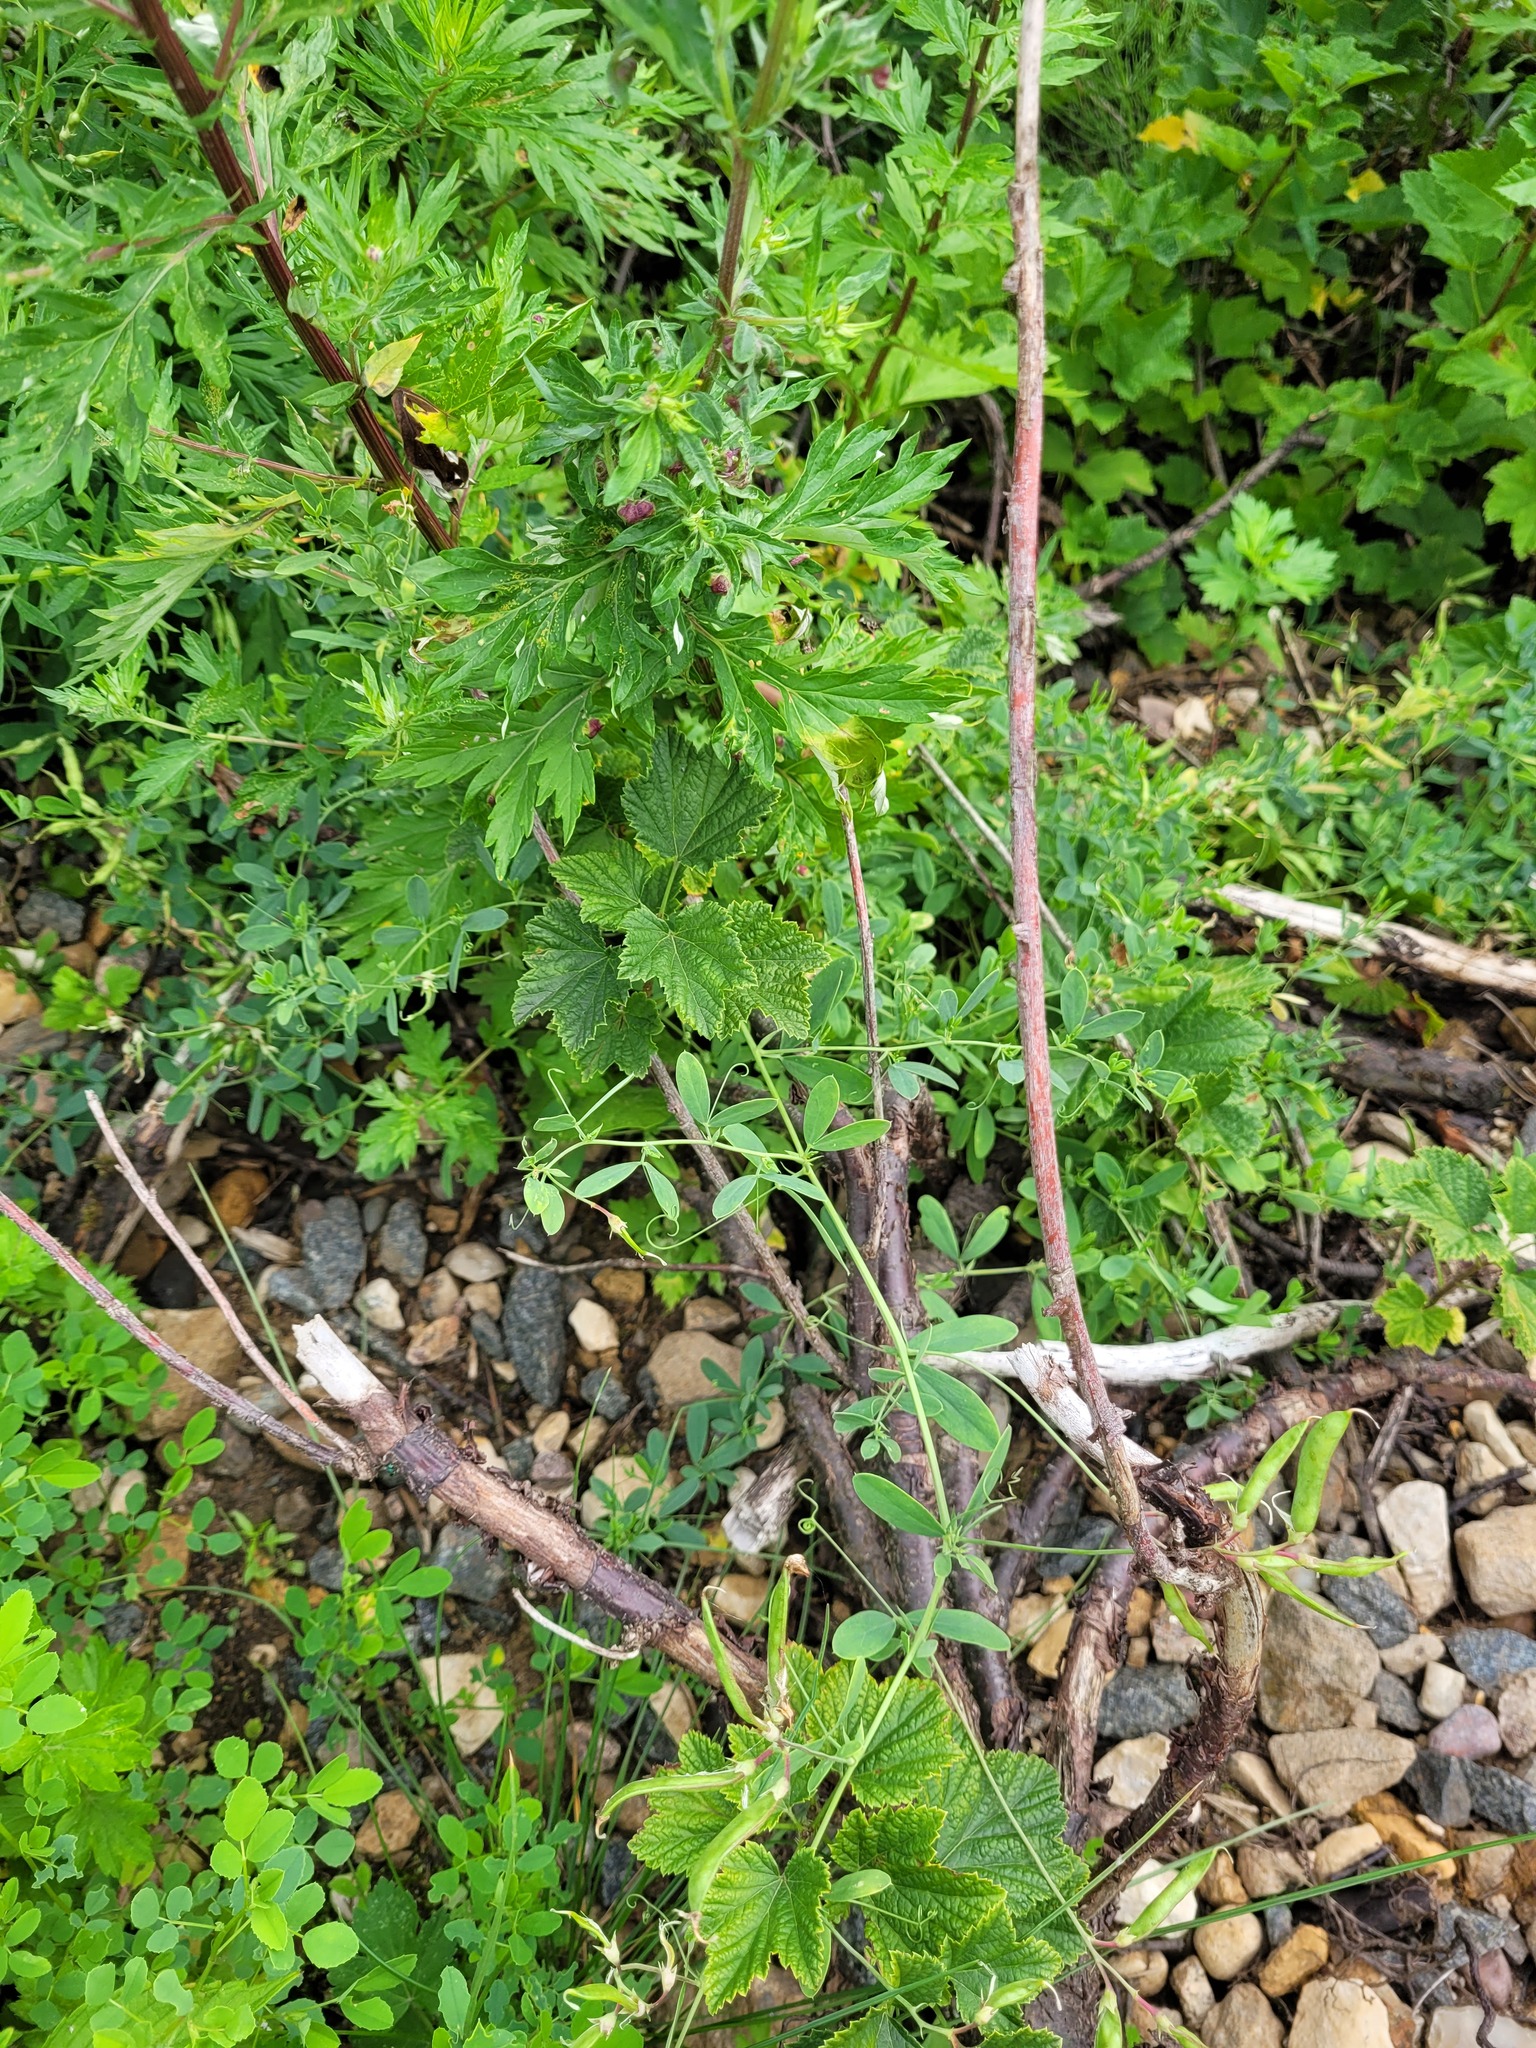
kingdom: Plantae
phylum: Tracheophyta
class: Magnoliopsida
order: Fabales
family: Fabaceae
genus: Lathyrus
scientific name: Lathyrus tuberosus
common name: Tuberous pea
